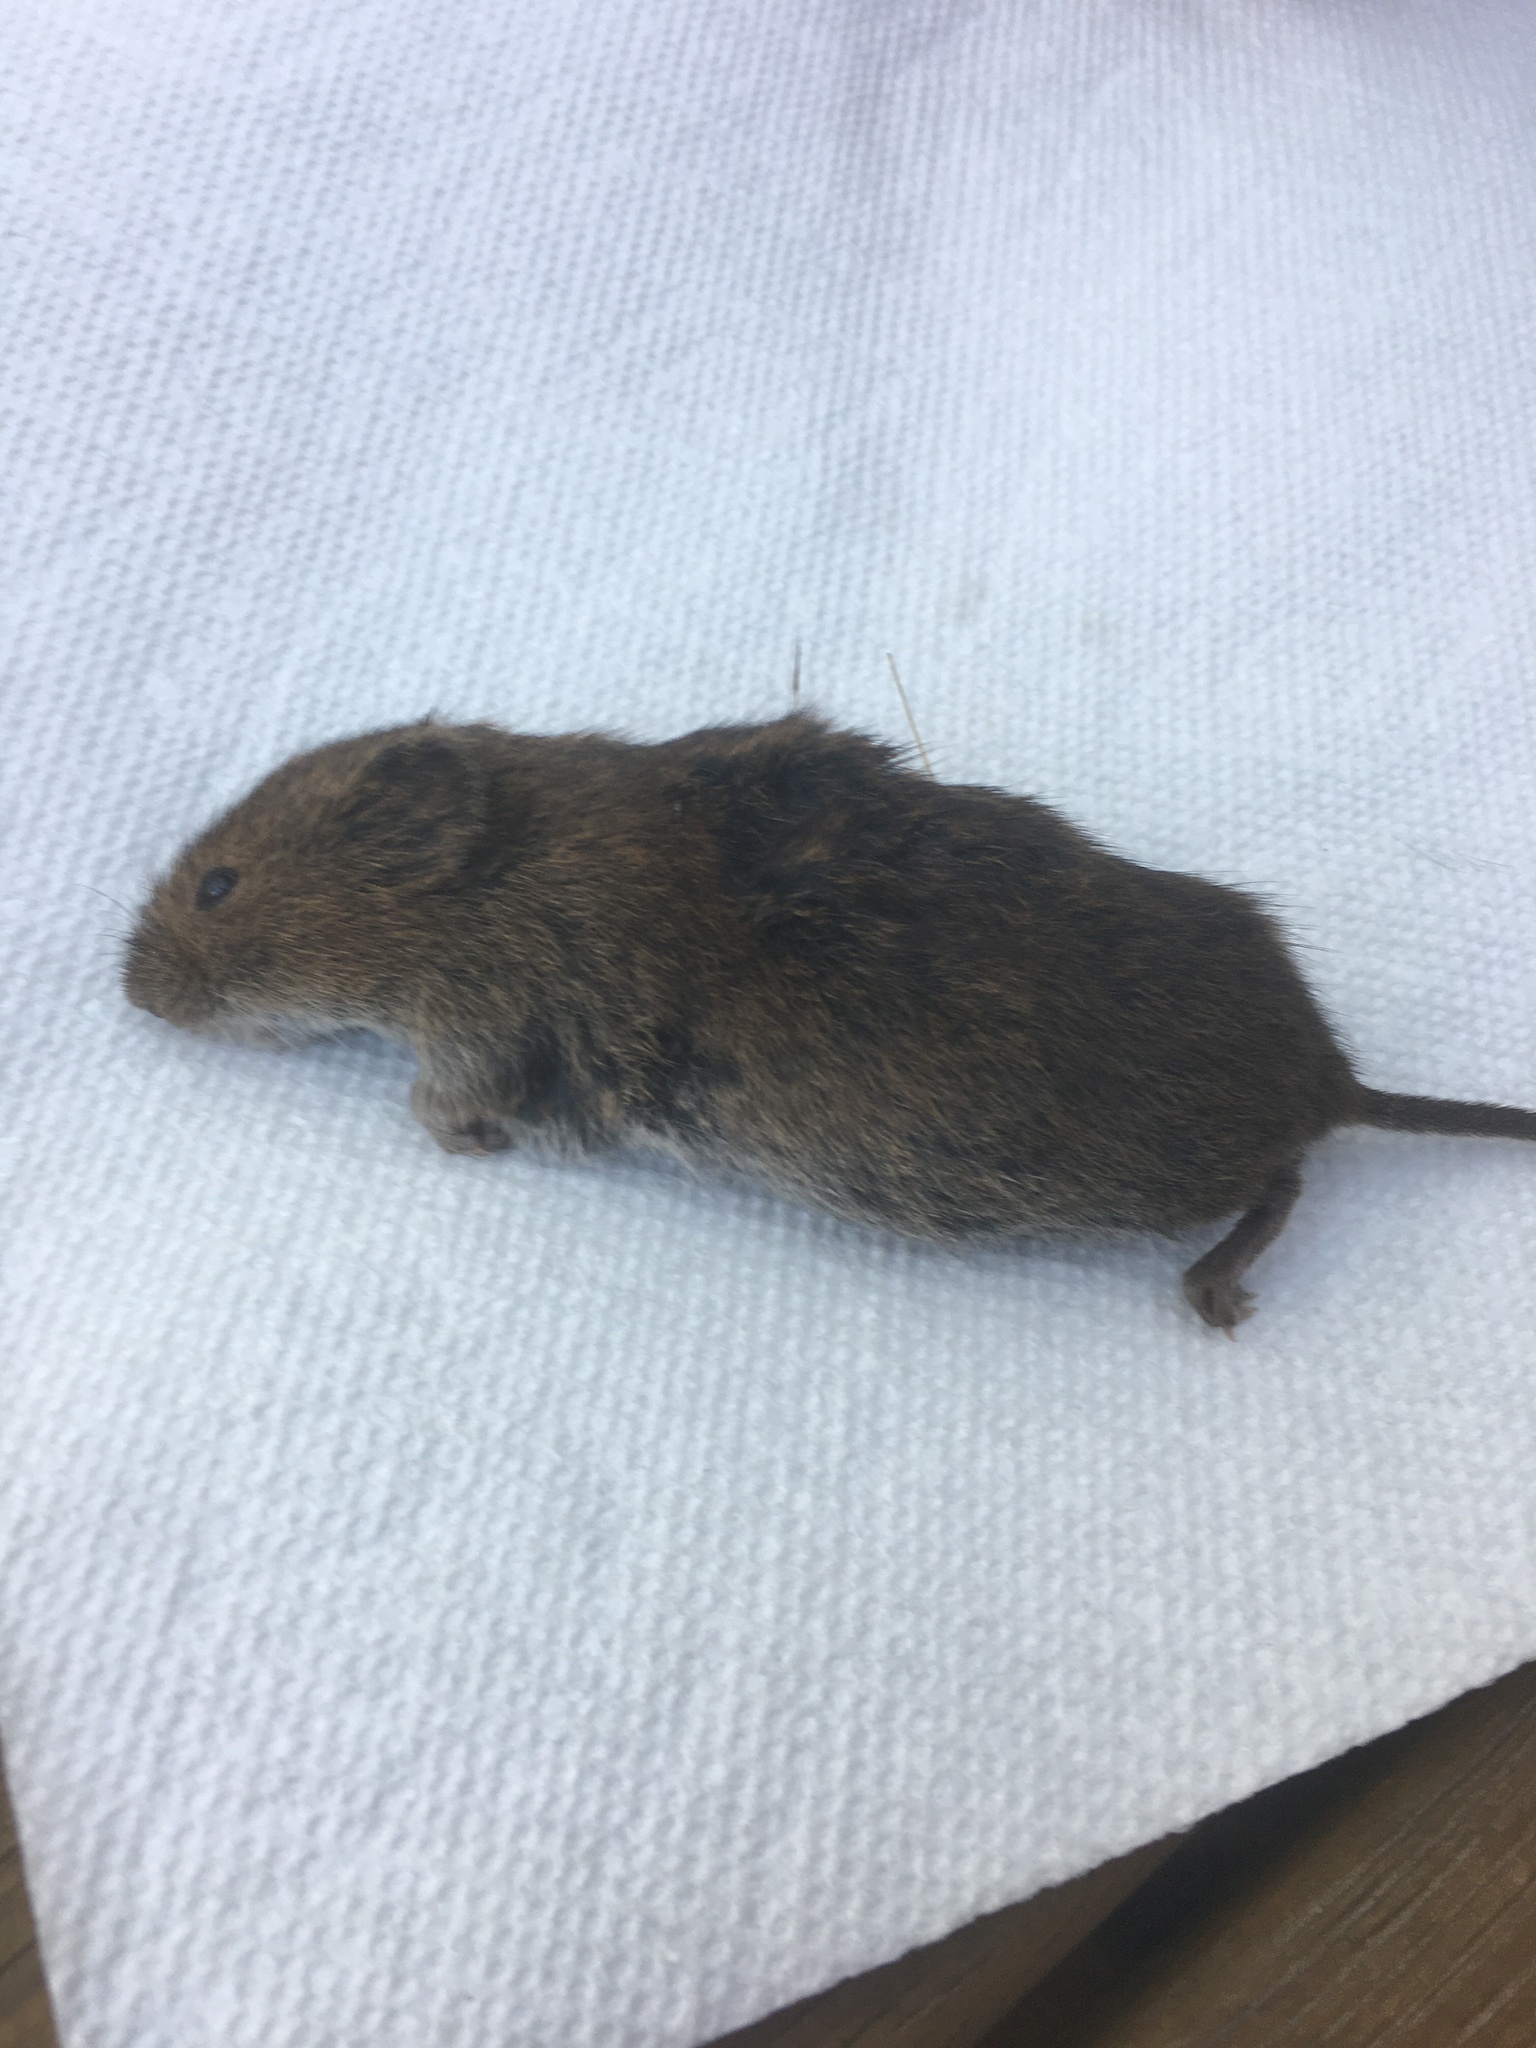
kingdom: Animalia
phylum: Chordata
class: Mammalia
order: Rodentia
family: Cricetidae
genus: Microtus
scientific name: Microtus pennsylvanicus
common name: Meadow vole
